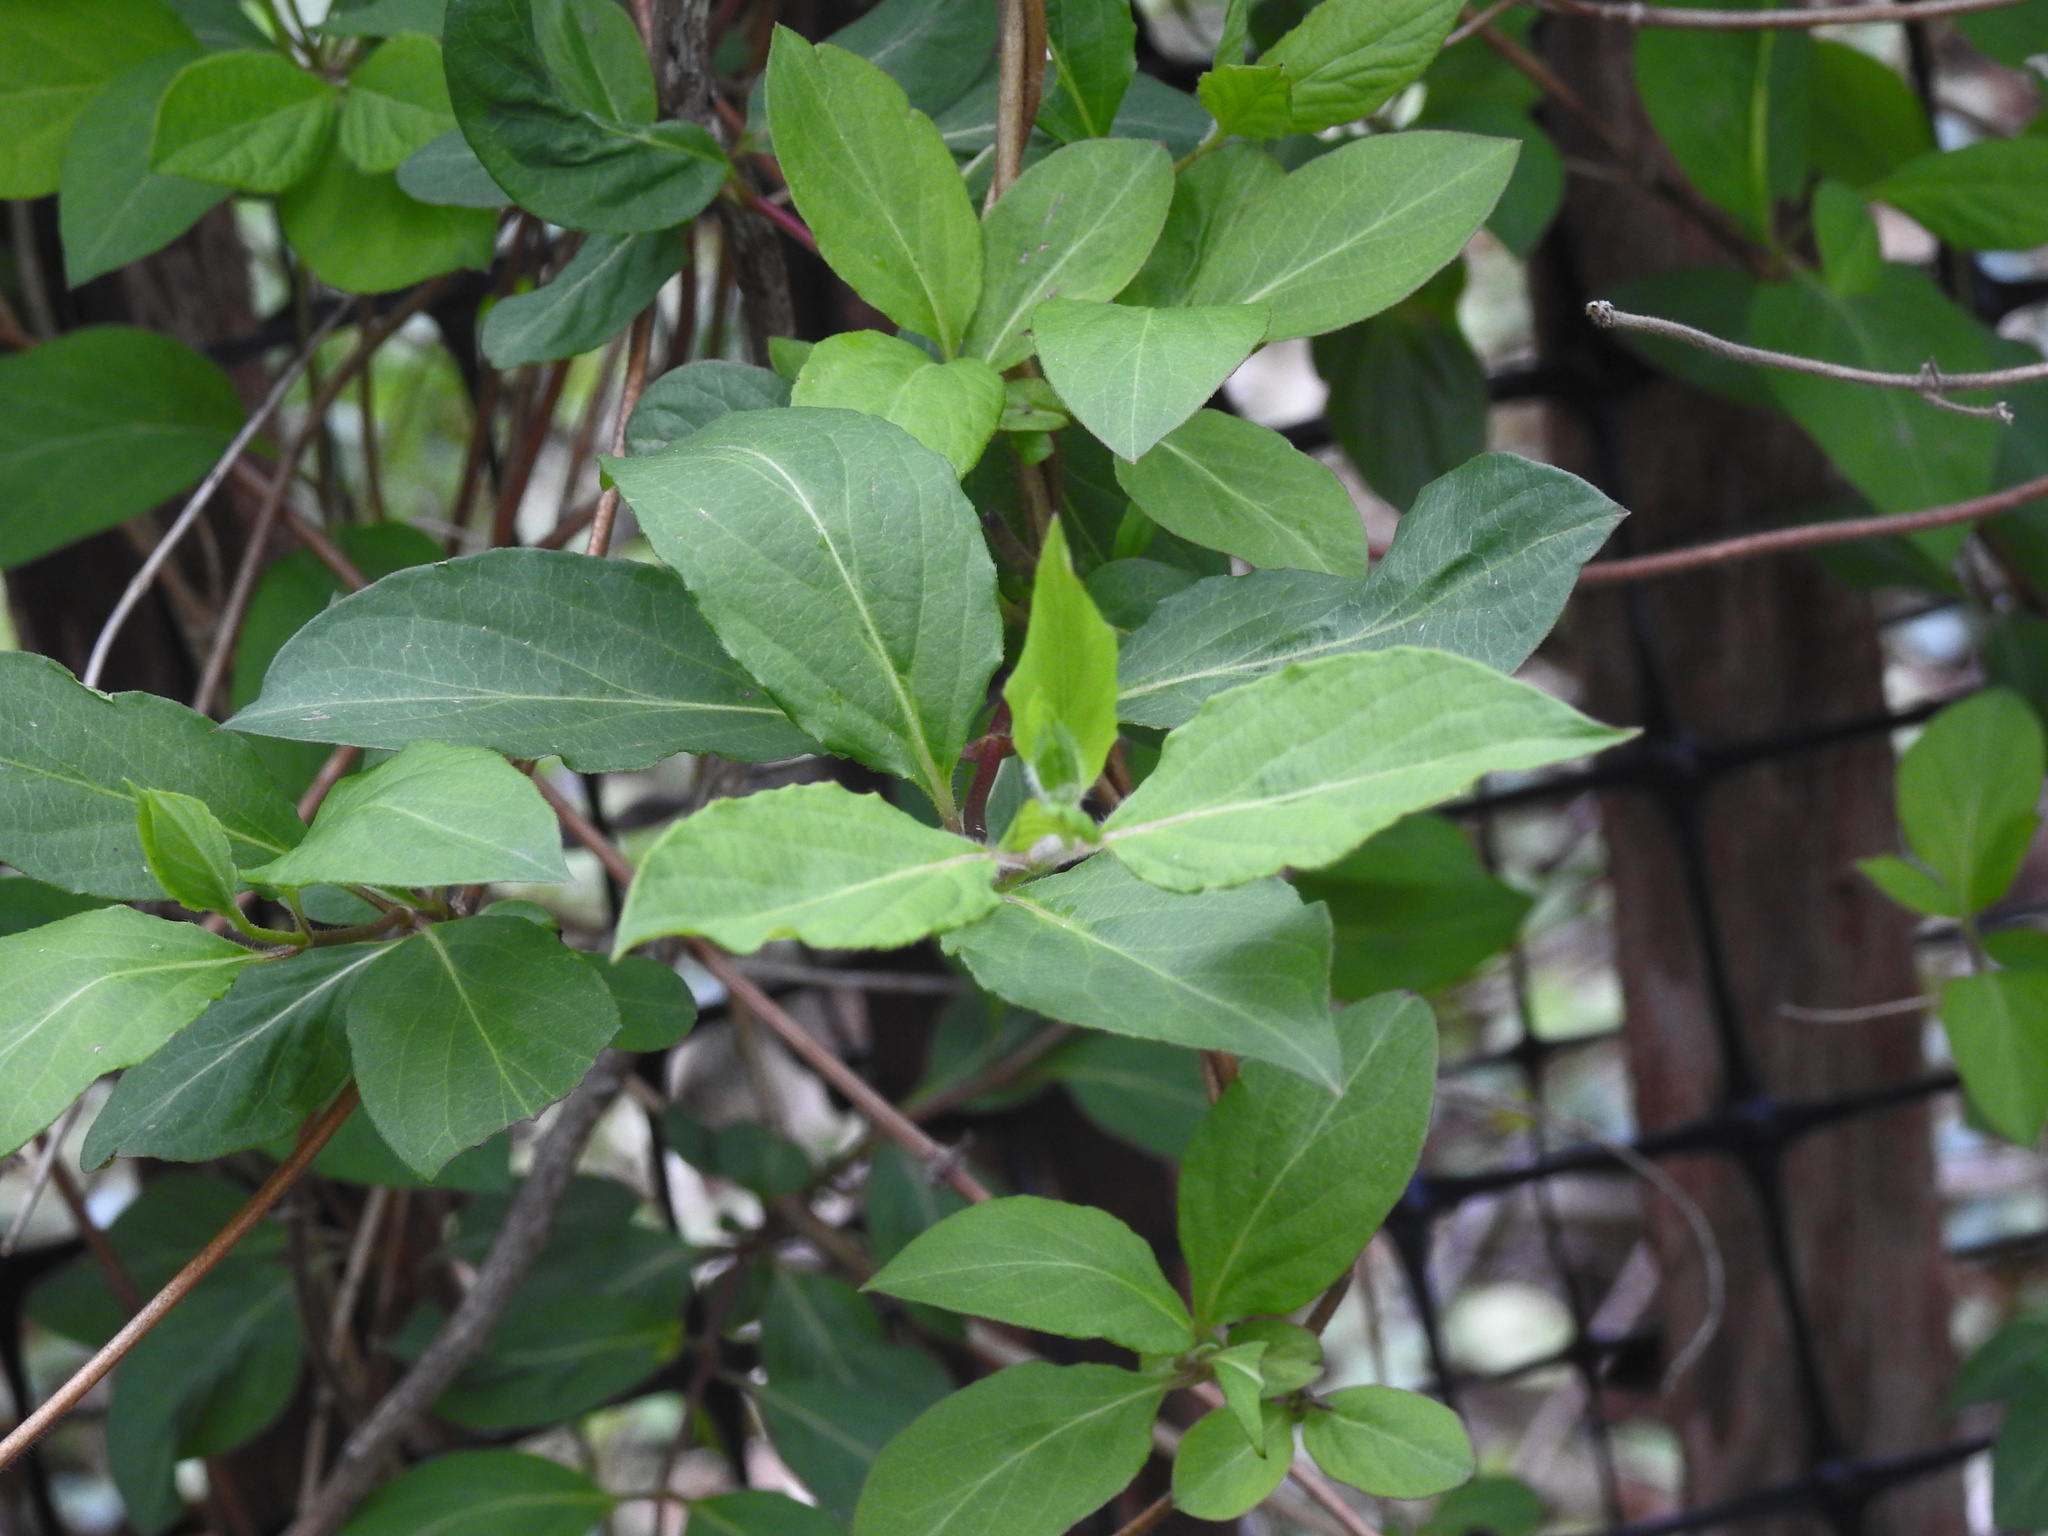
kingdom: Plantae
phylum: Tracheophyta
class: Magnoliopsida
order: Dipsacales
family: Caprifoliaceae
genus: Lonicera
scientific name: Lonicera japonica
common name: Japanese honeysuckle
